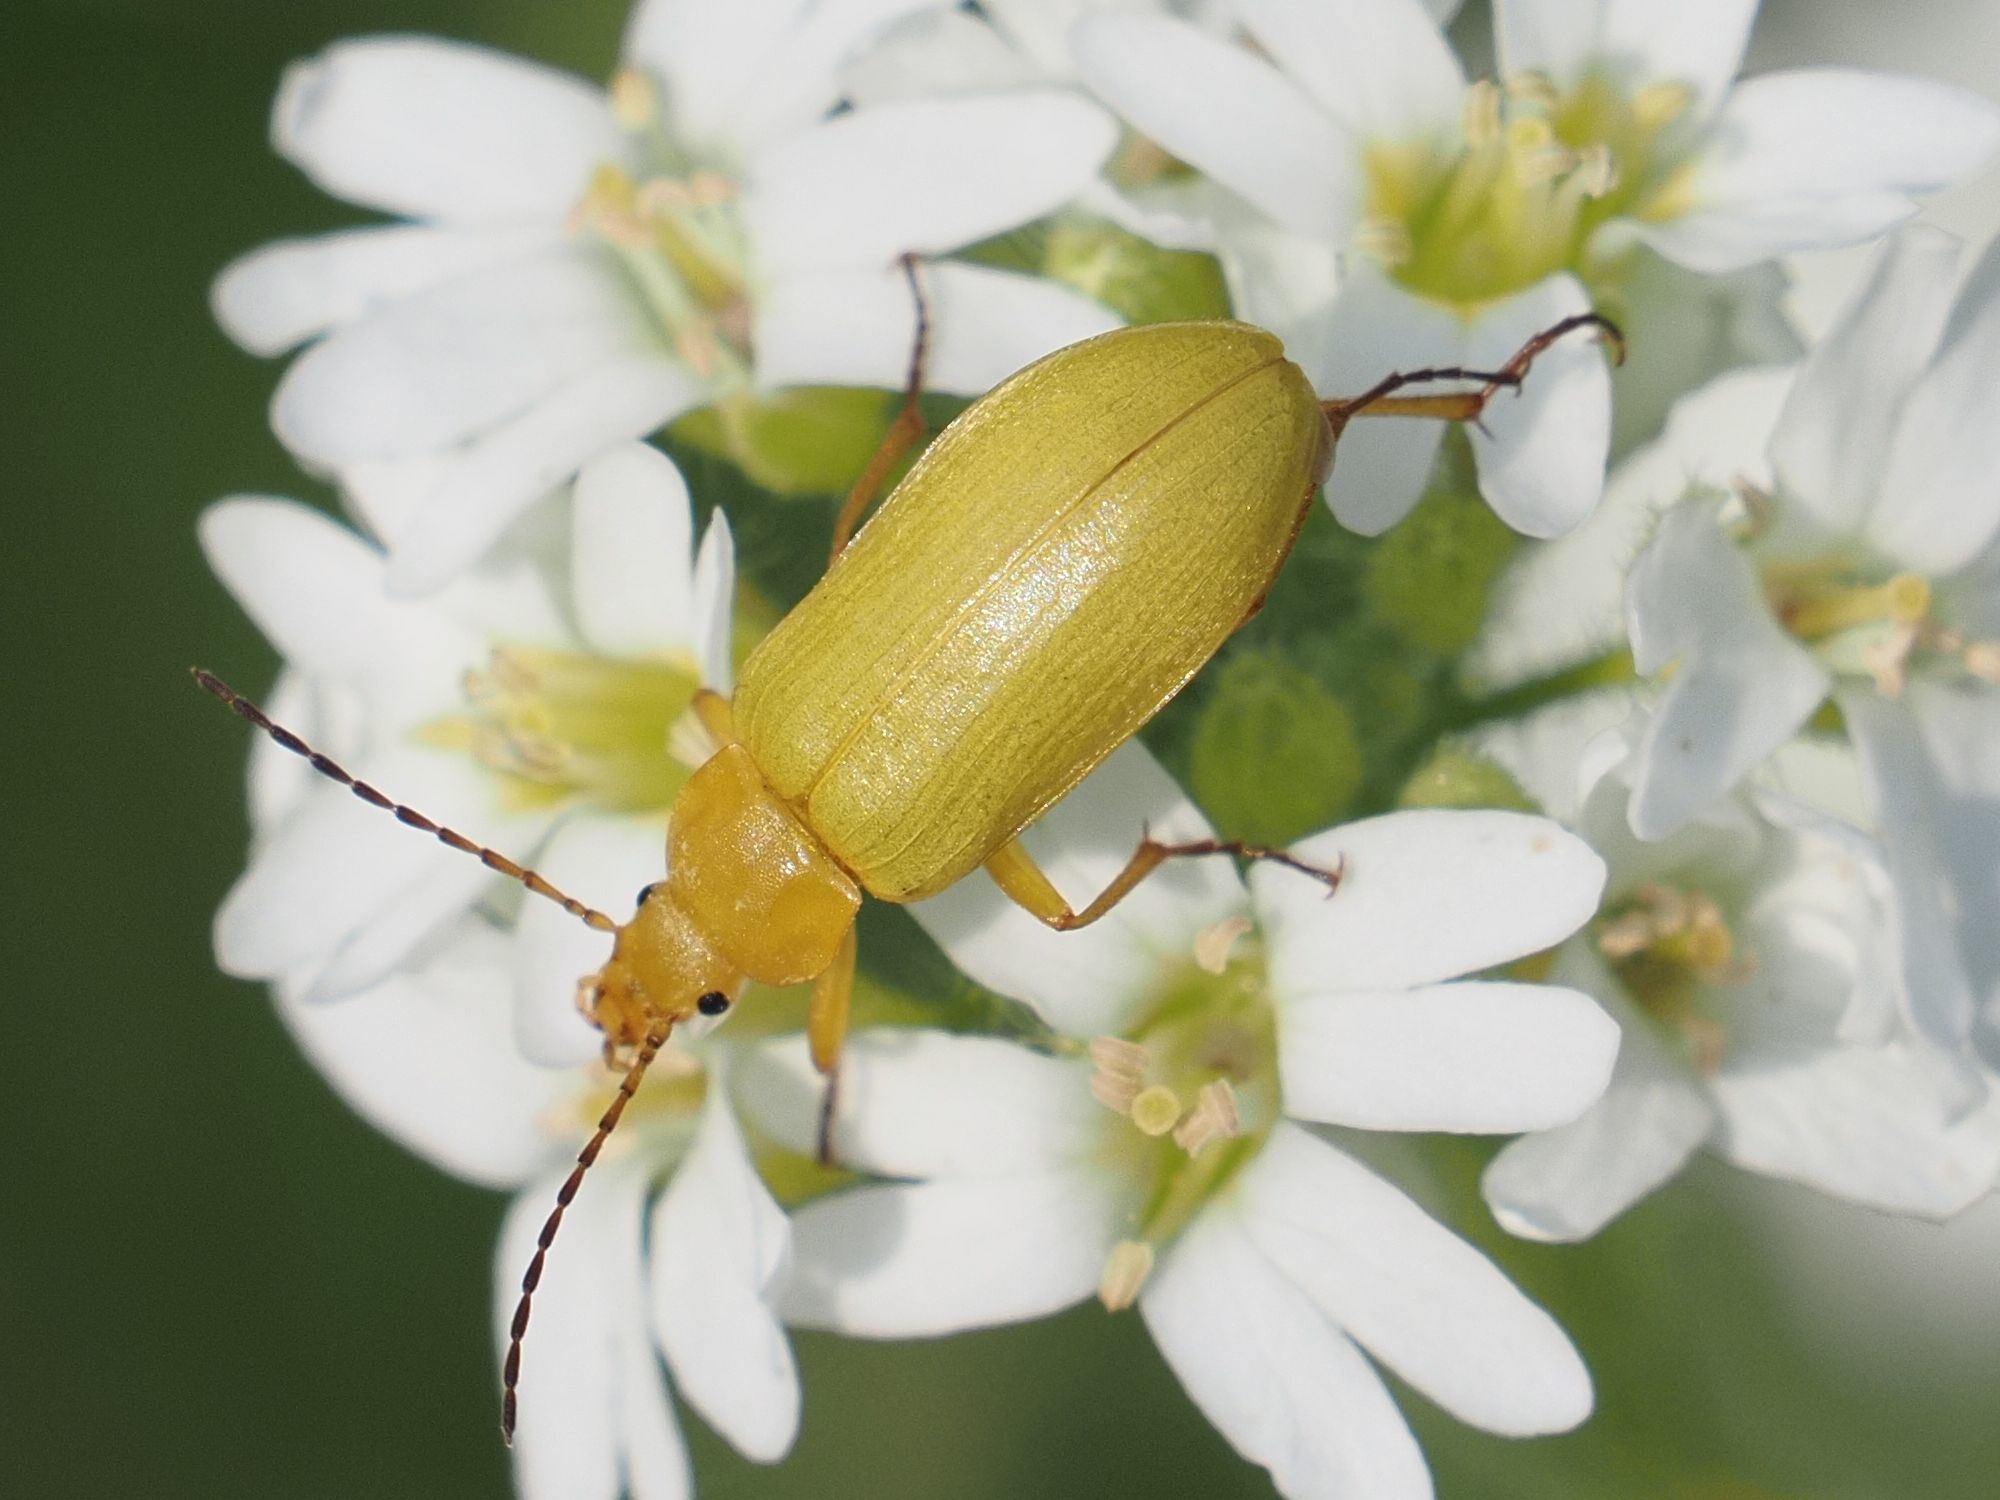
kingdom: Animalia
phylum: Arthropoda
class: Insecta
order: Coleoptera
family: Tenebrionidae
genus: Cteniopus
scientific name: Cteniopus sulphureus
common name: Sulphur beetle
